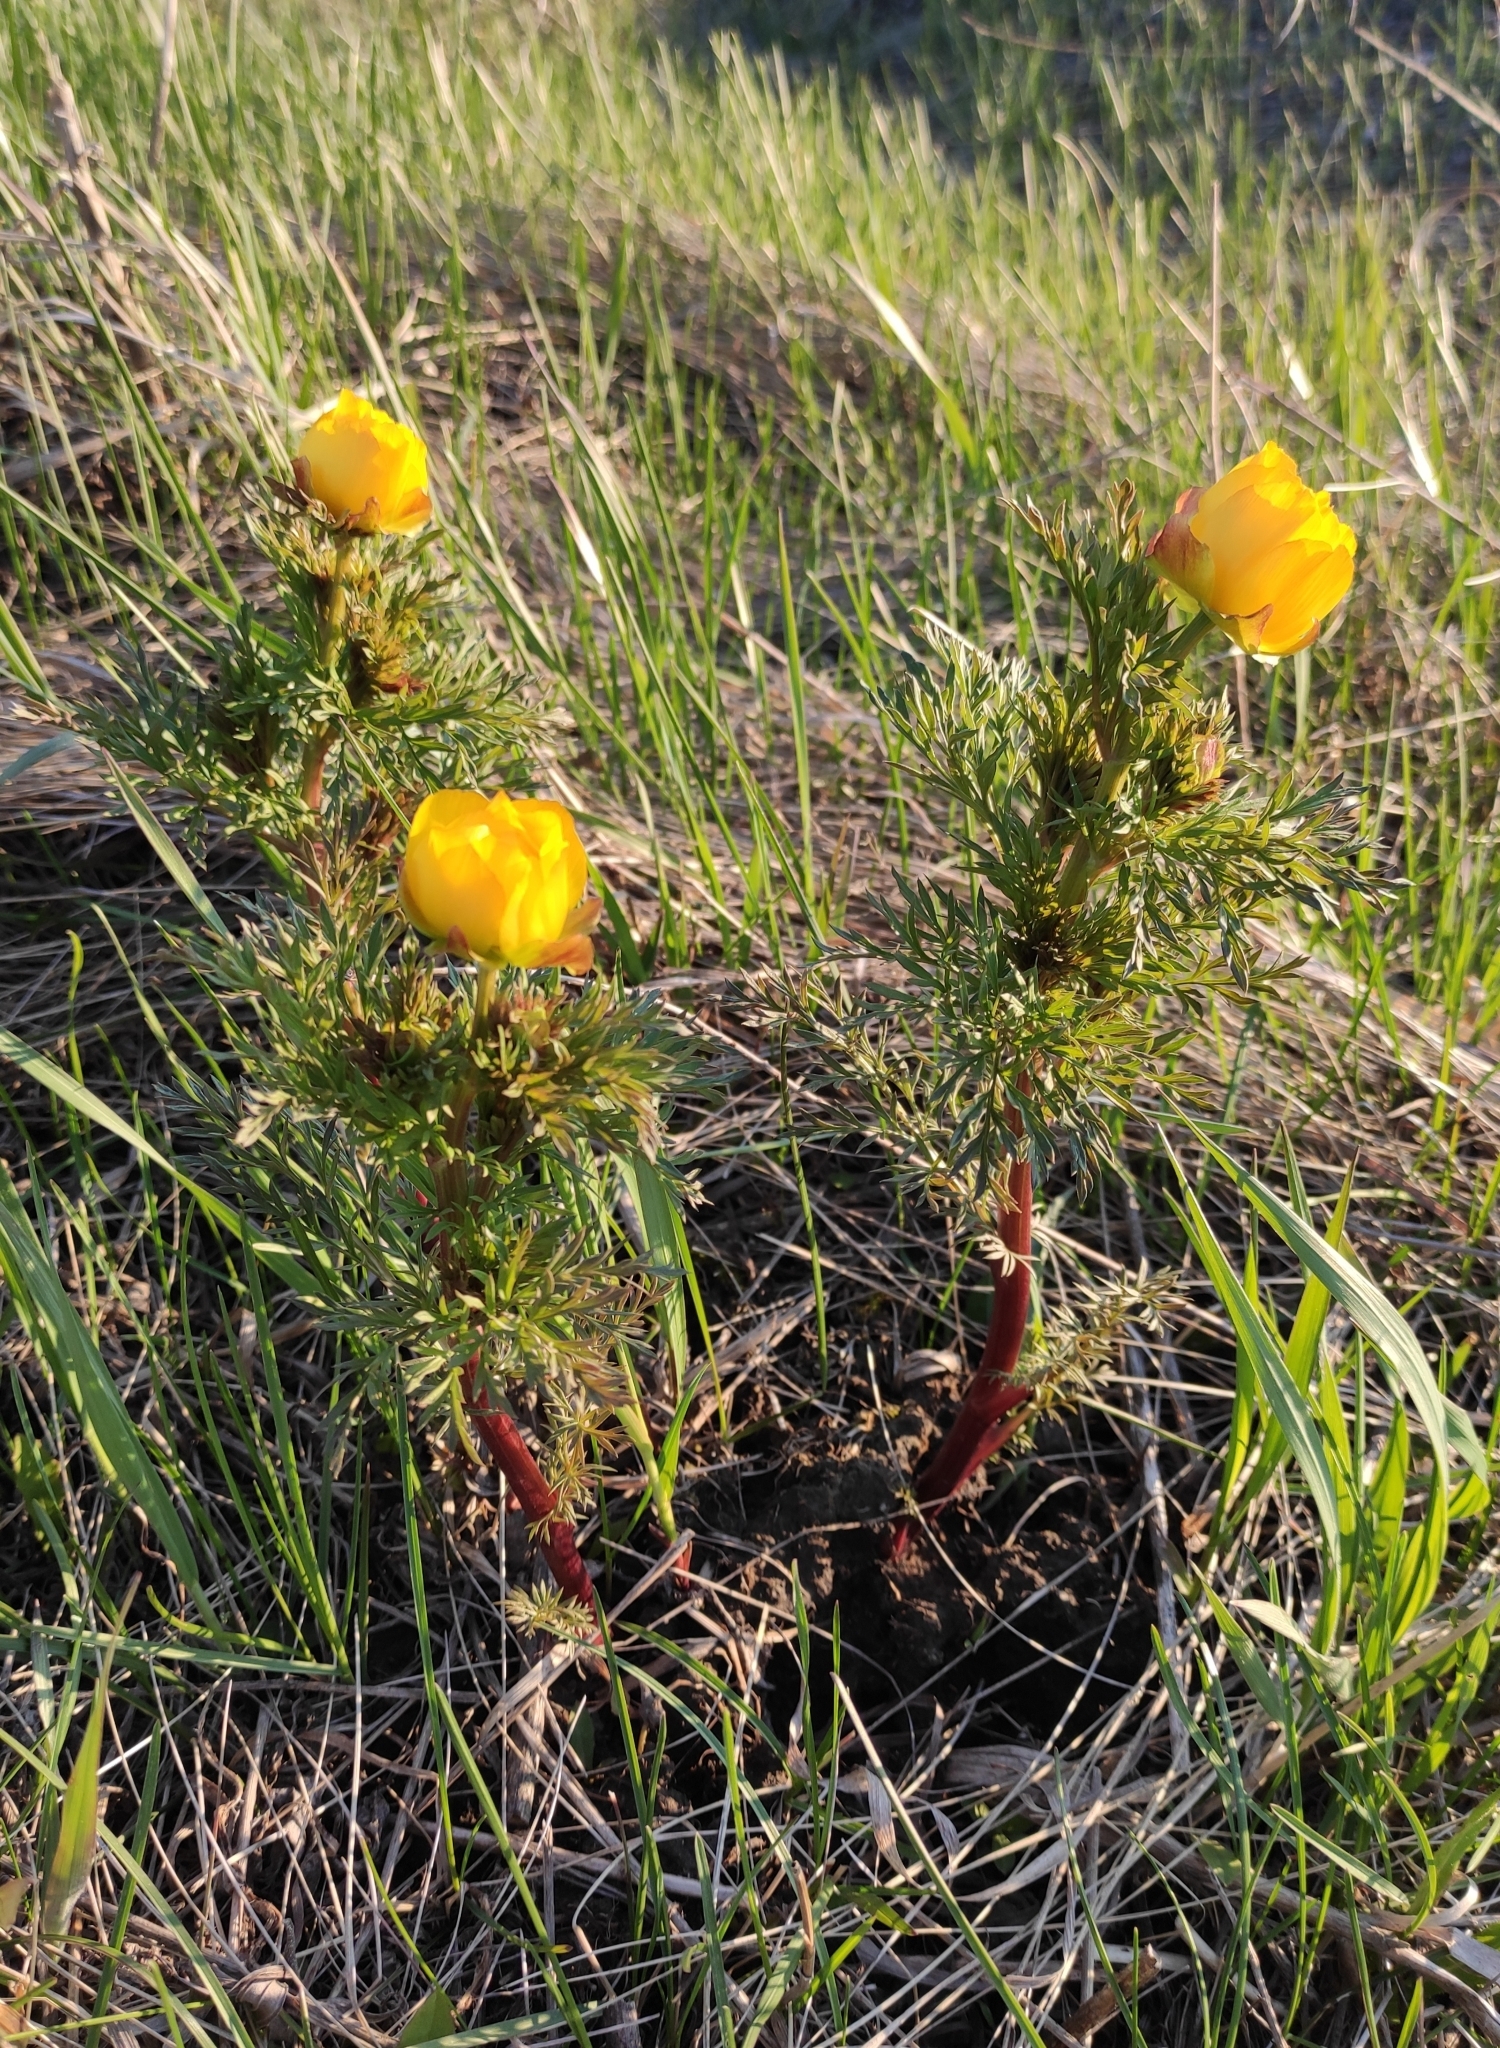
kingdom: Plantae
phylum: Tracheophyta
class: Magnoliopsida
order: Ranunculales
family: Ranunculaceae
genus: Adonis
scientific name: Adonis
